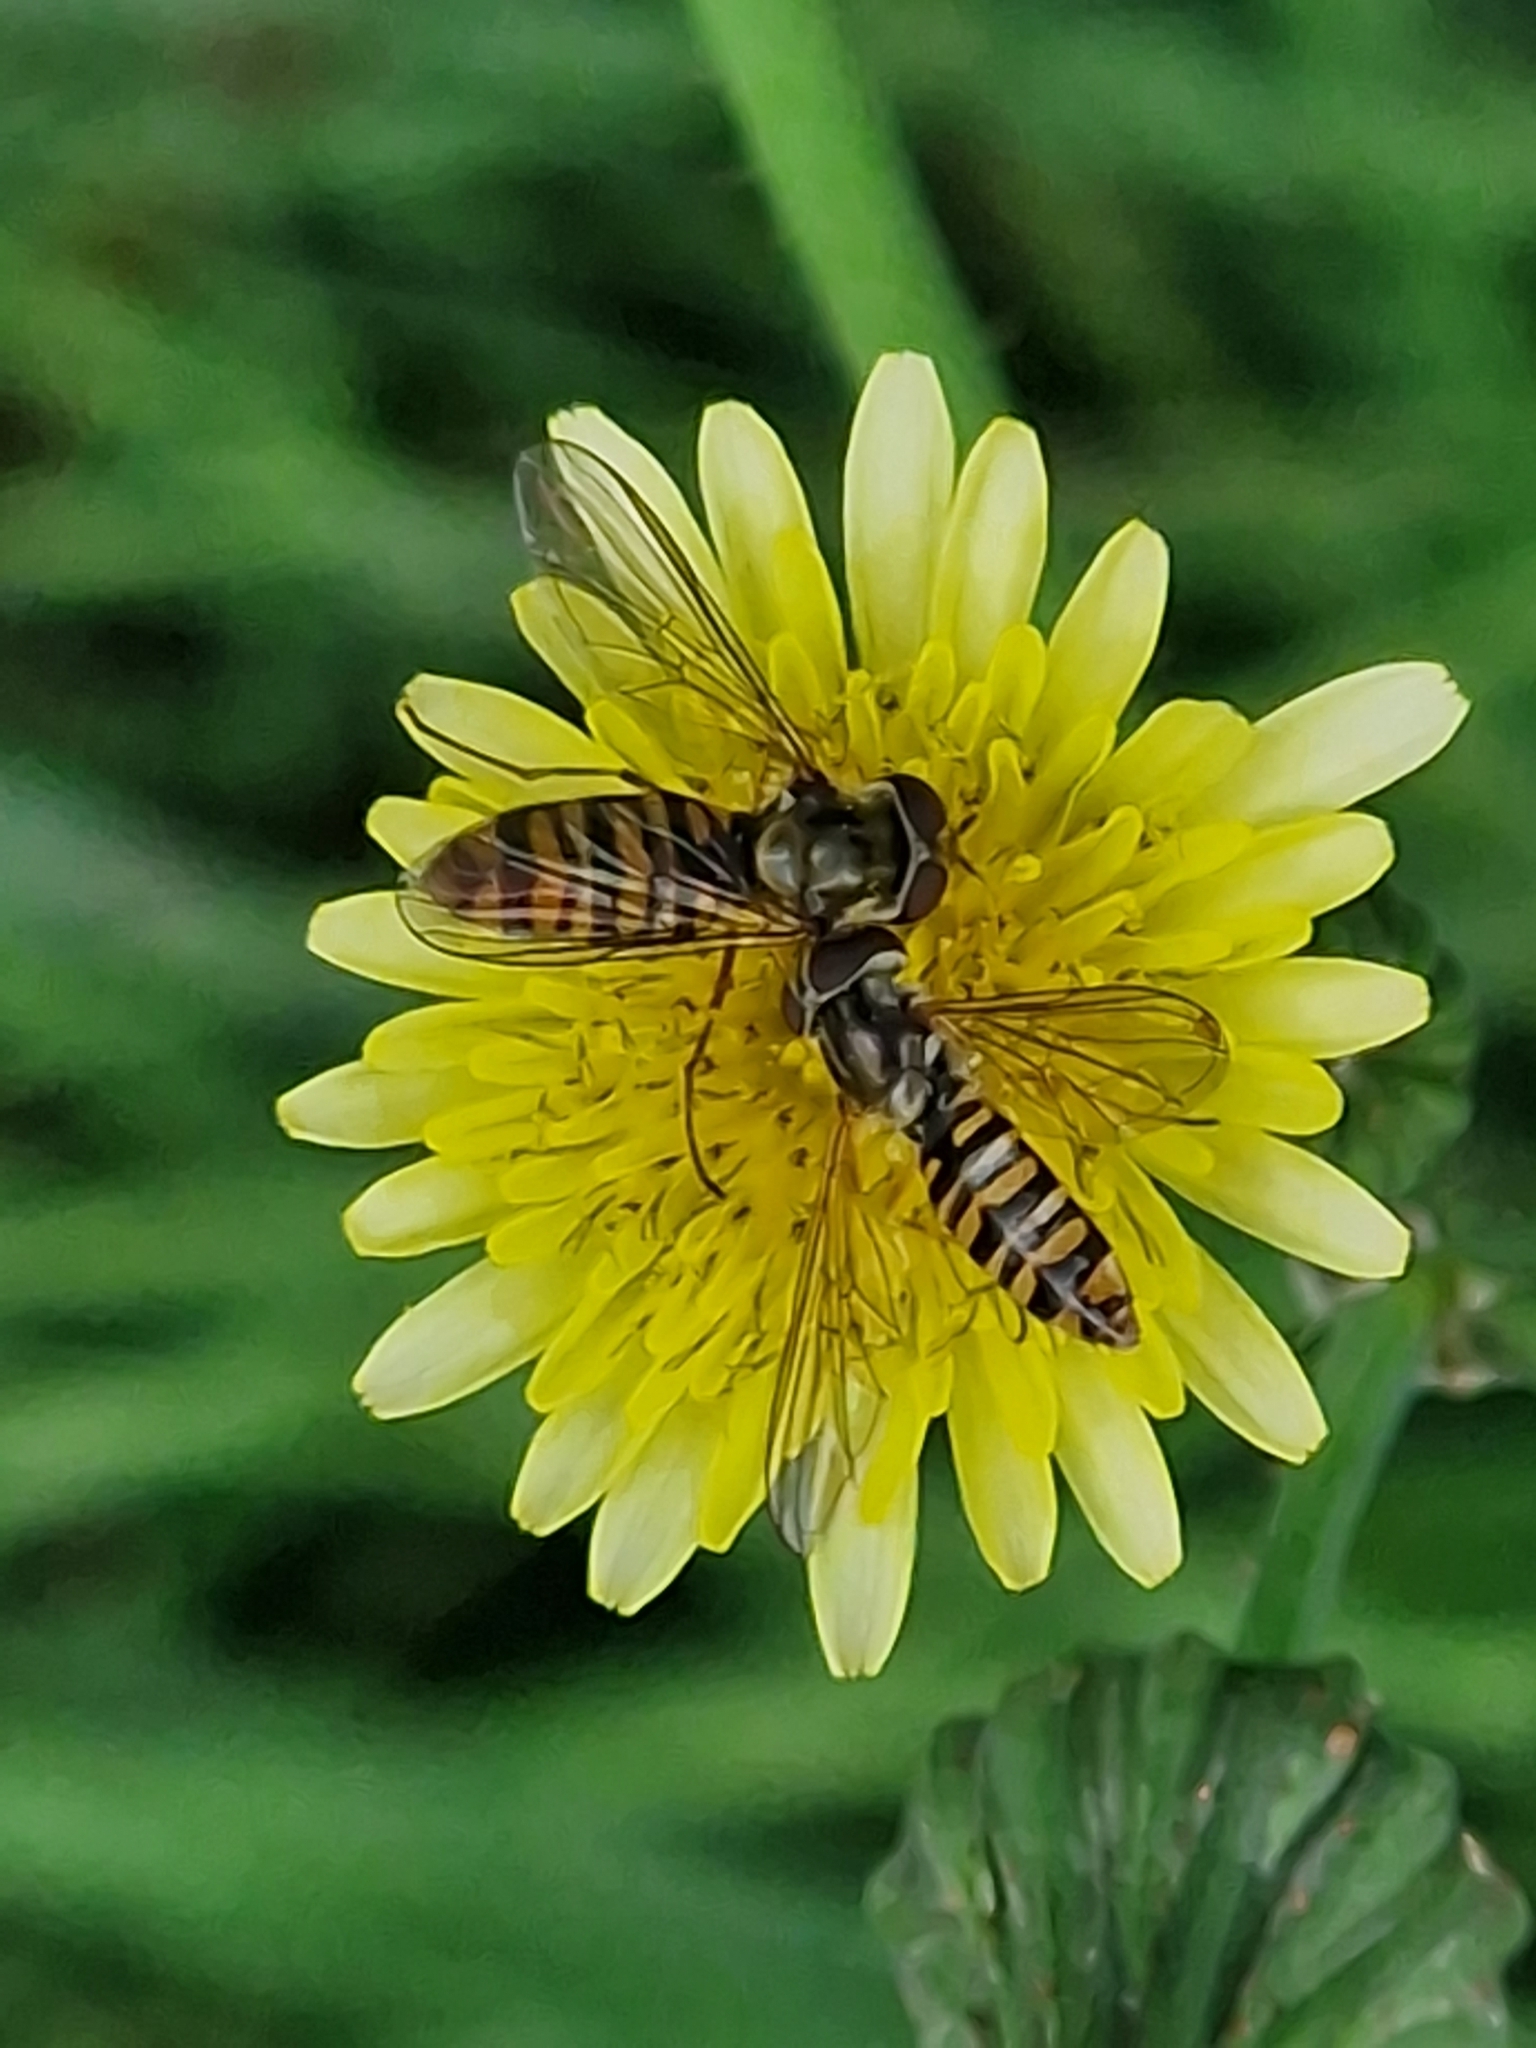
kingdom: Animalia
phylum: Arthropoda
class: Insecta
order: Diptera
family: Syrphidae
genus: Episyrphus
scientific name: Episyrphus balteatus
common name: Marmalade hoverfly
